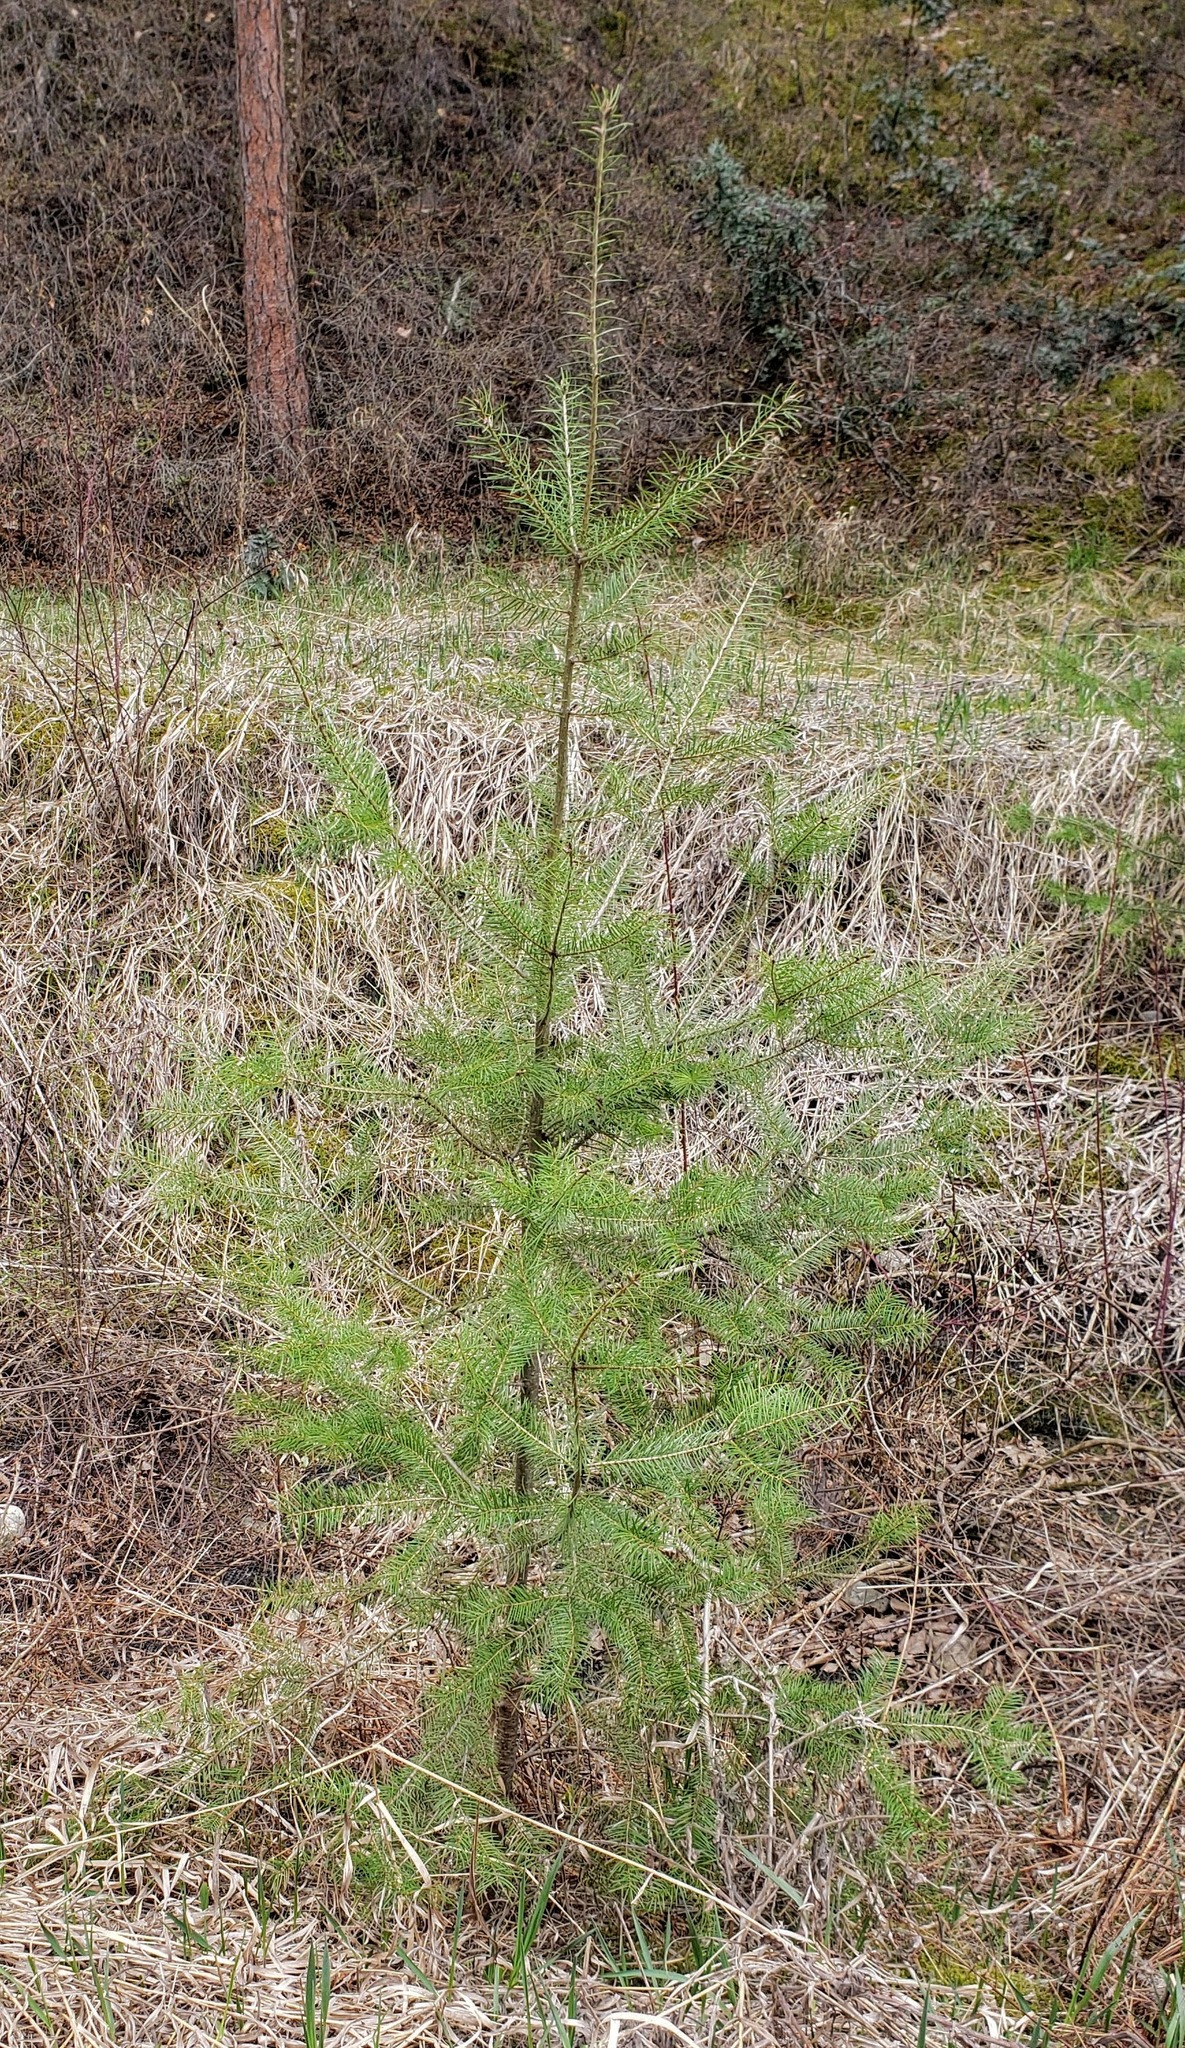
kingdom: Plantae
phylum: Tracheophyta
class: Pinopsida
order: Pinales
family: Pinaceae
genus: Pseudotsuga
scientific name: Pseudotsuga menziesii
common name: Douglas fir
